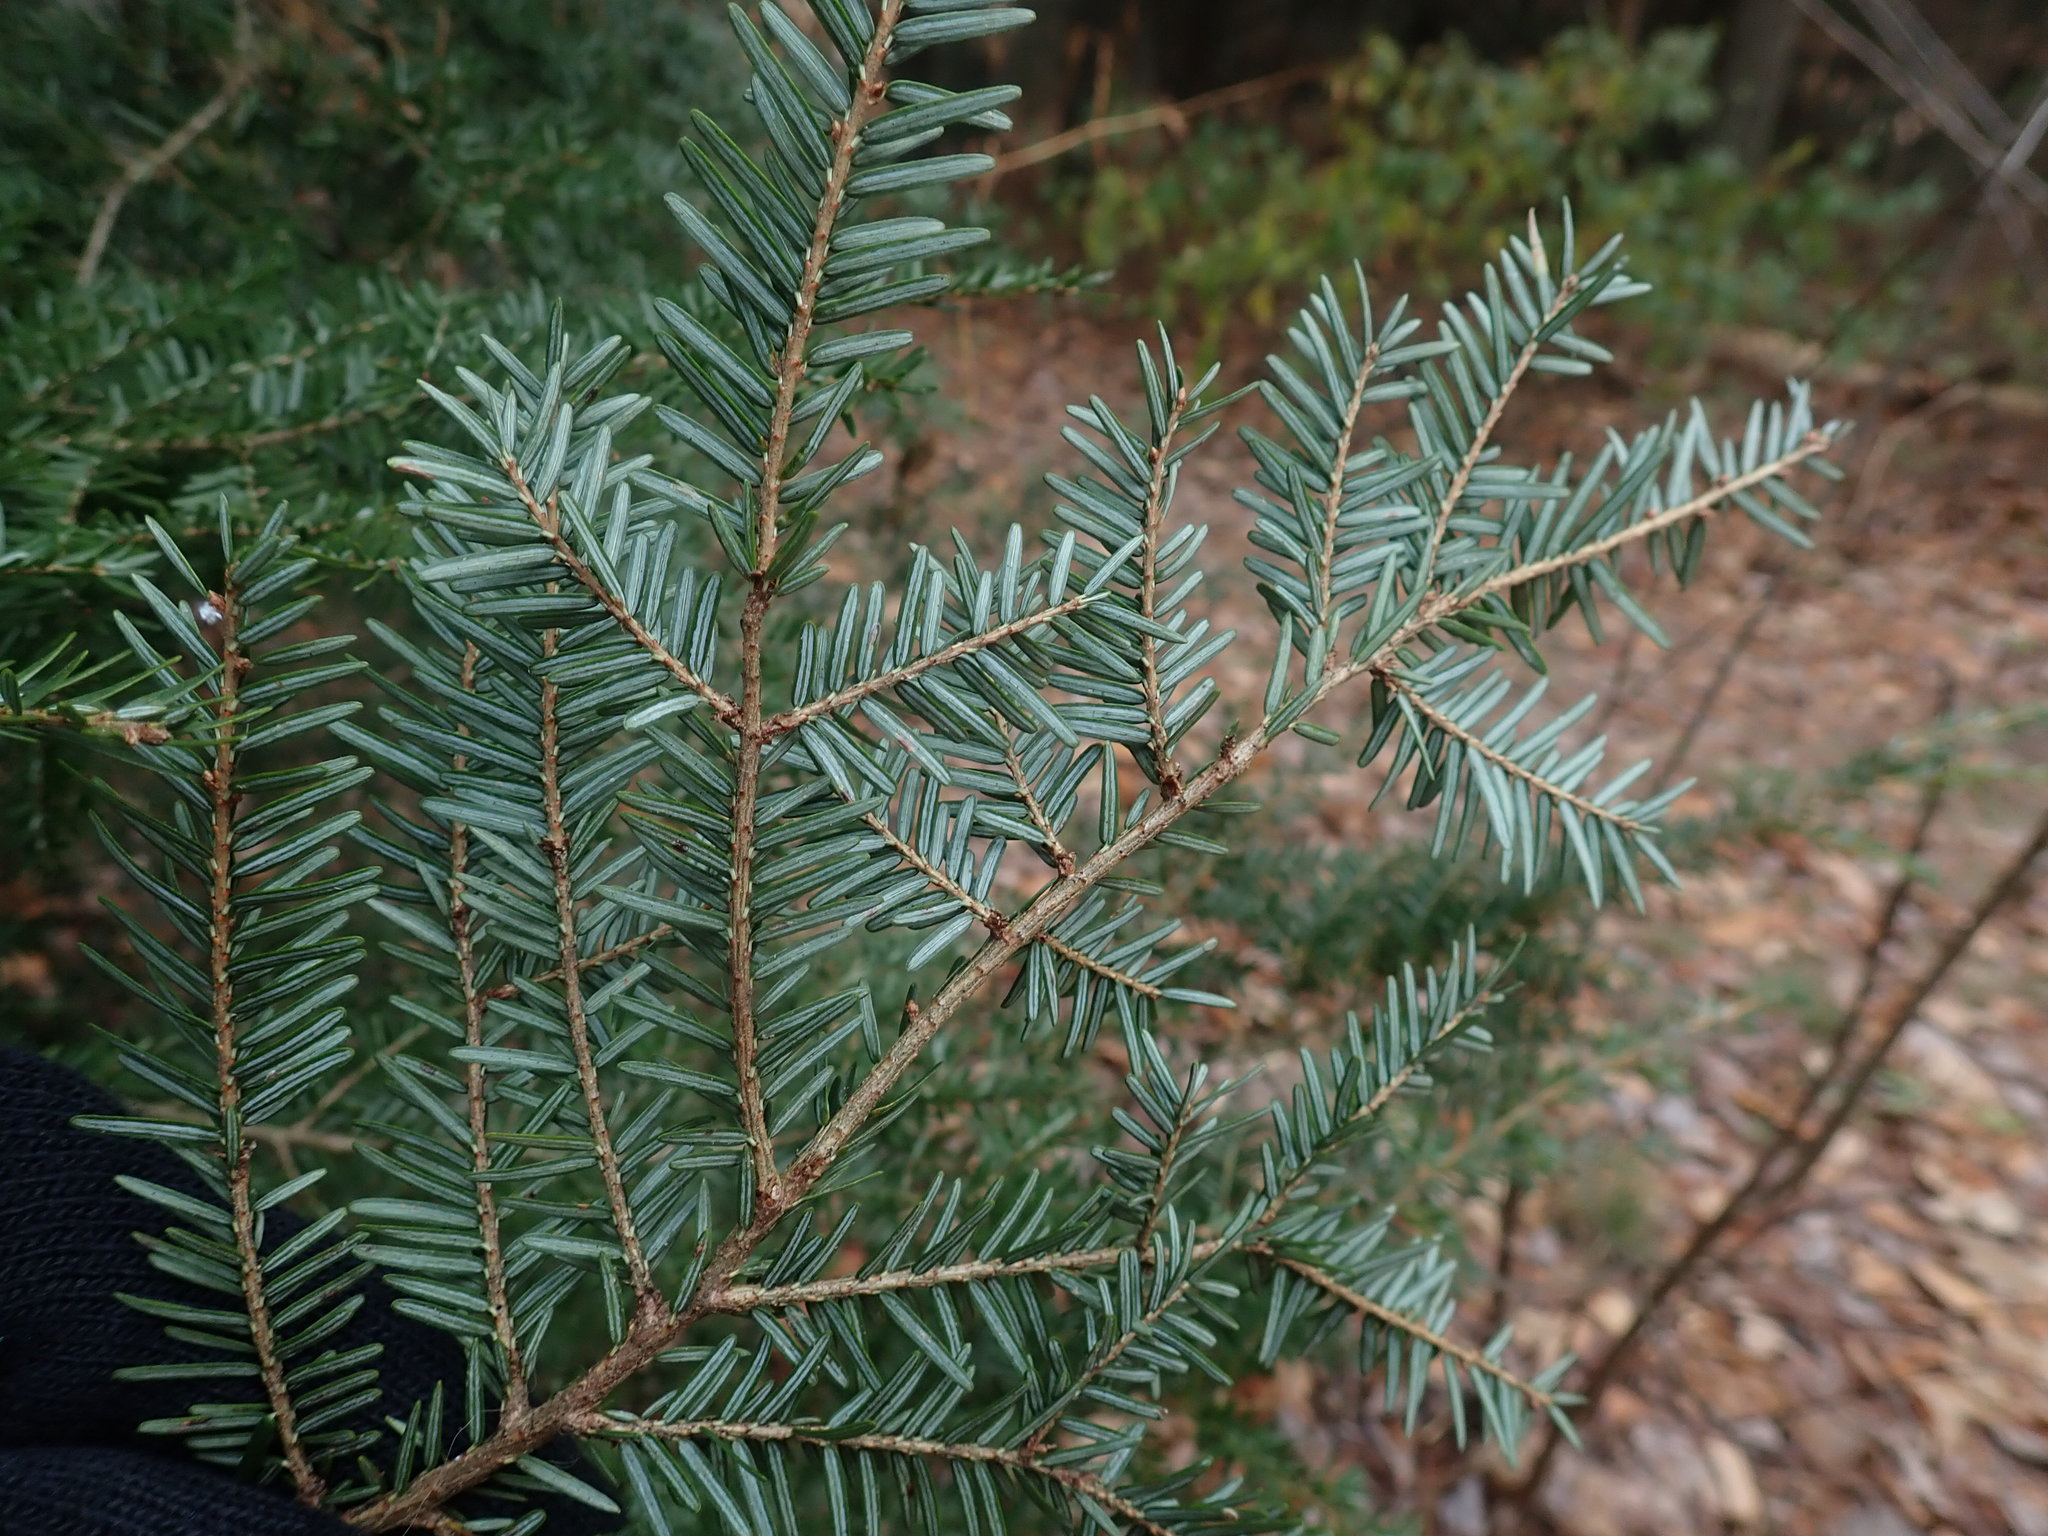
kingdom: Plantae
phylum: Tracheophyta
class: Pinopsida
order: Pinales
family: Pinaceae
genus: Tsuga
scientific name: Tsuga canadensis
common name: Eastern hemlock
